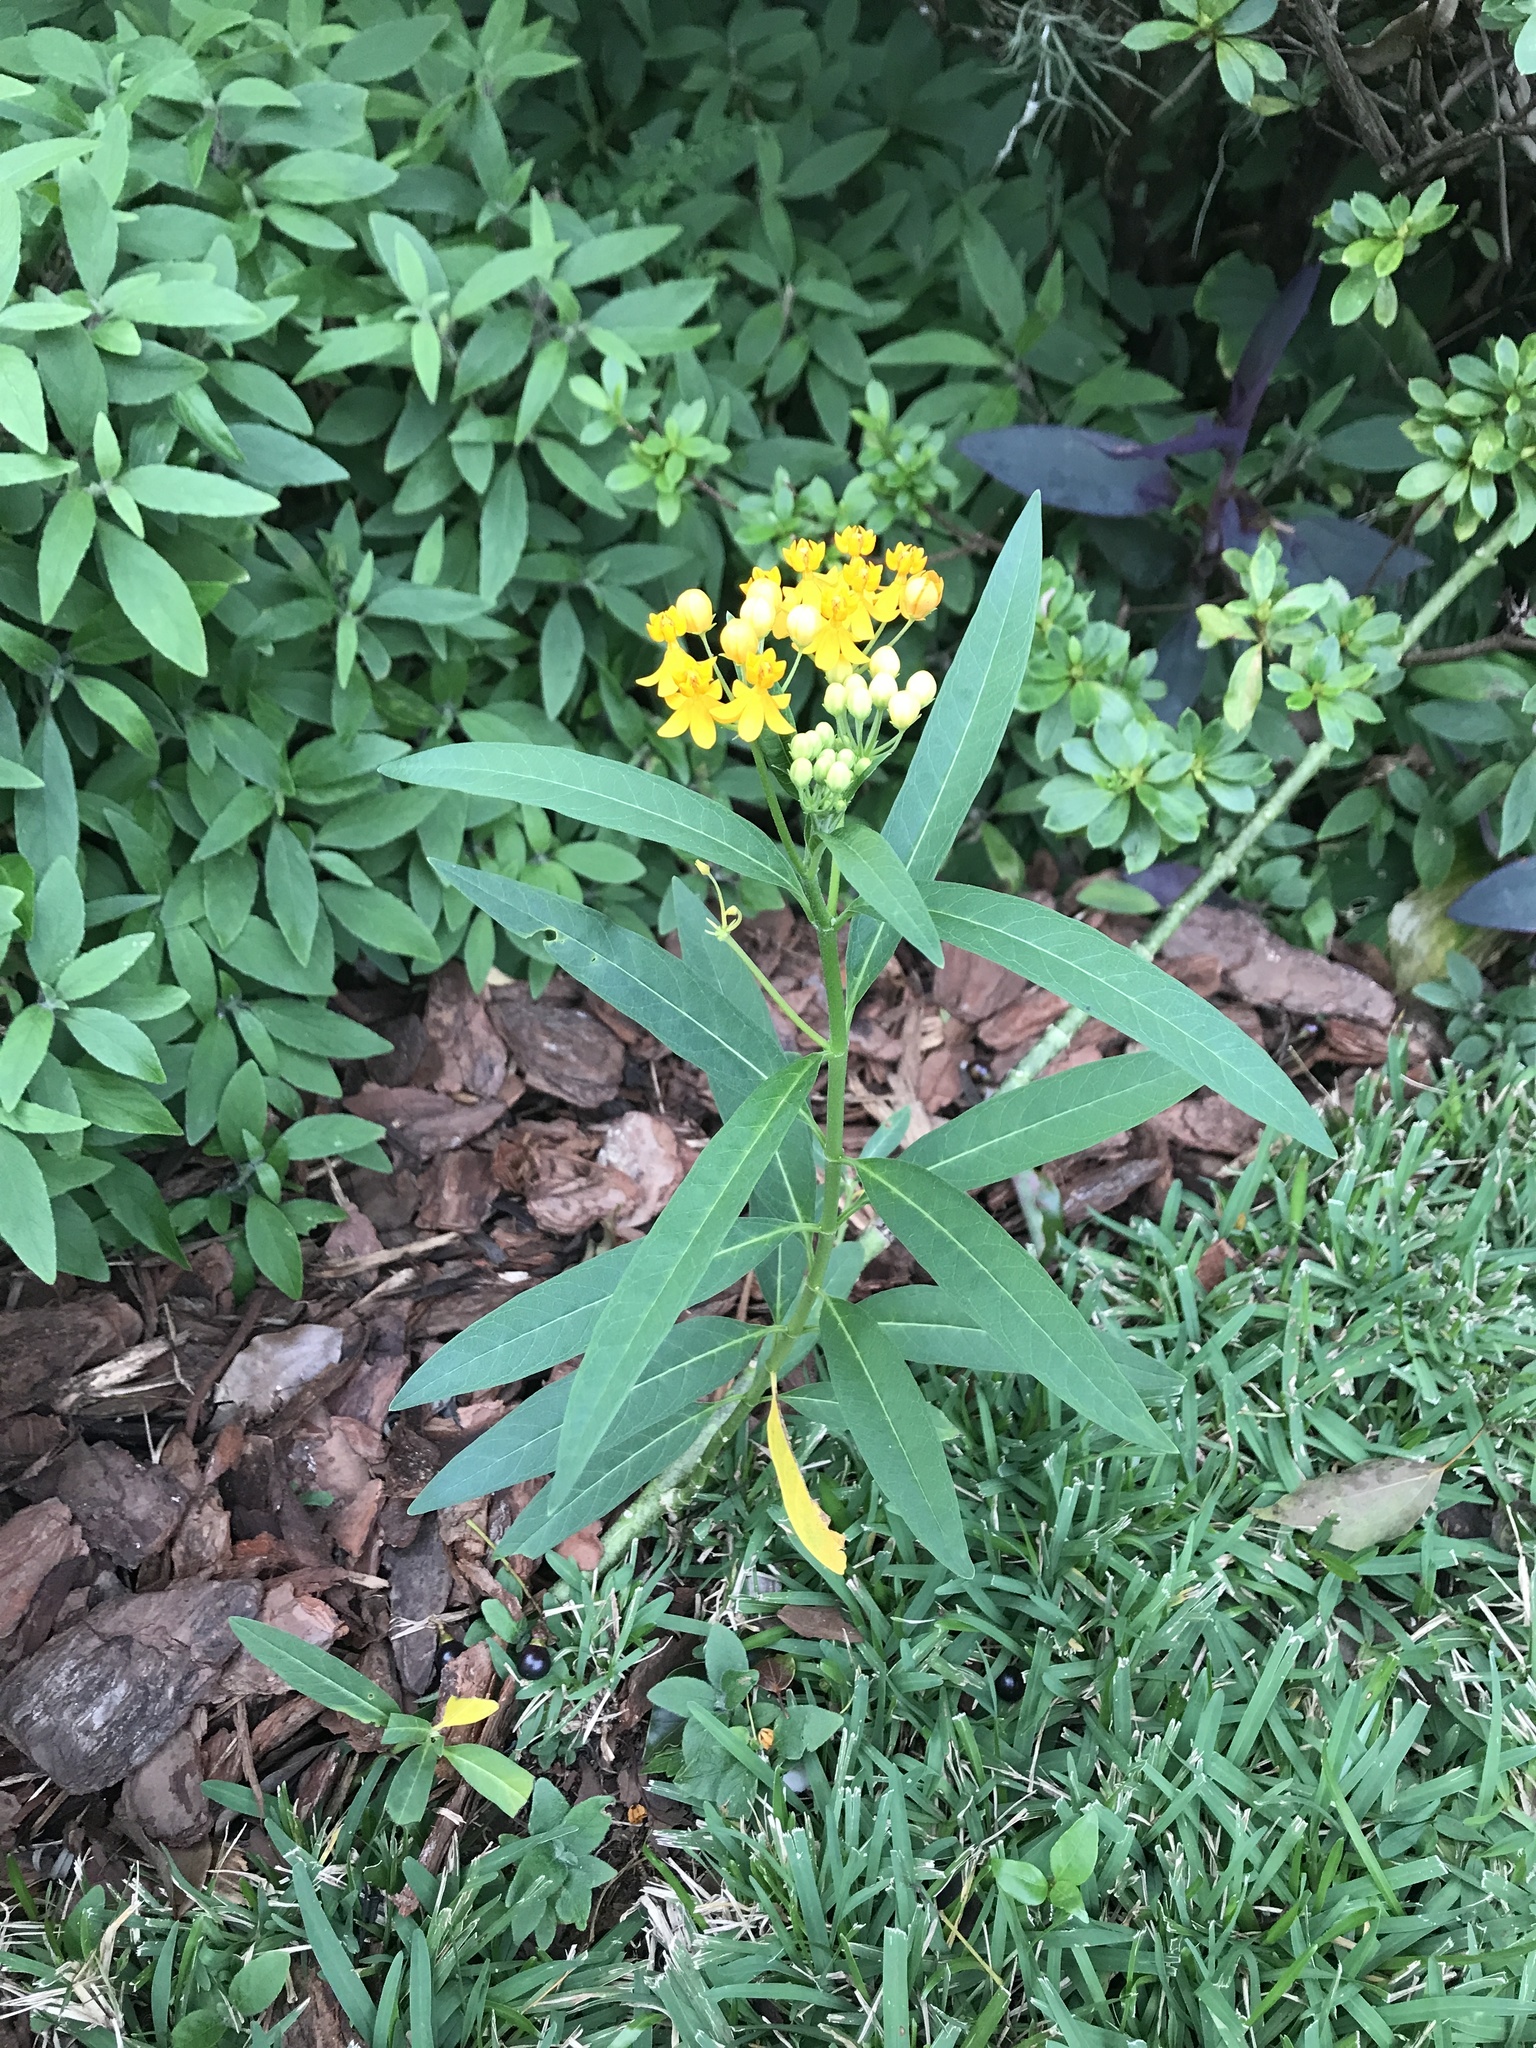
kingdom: Plantae
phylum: Tracheophyta
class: Magnoliopsida
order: Gentianales
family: Apocynaceae
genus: Asclepias
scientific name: Asclepias curassavica
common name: Bloodflower
